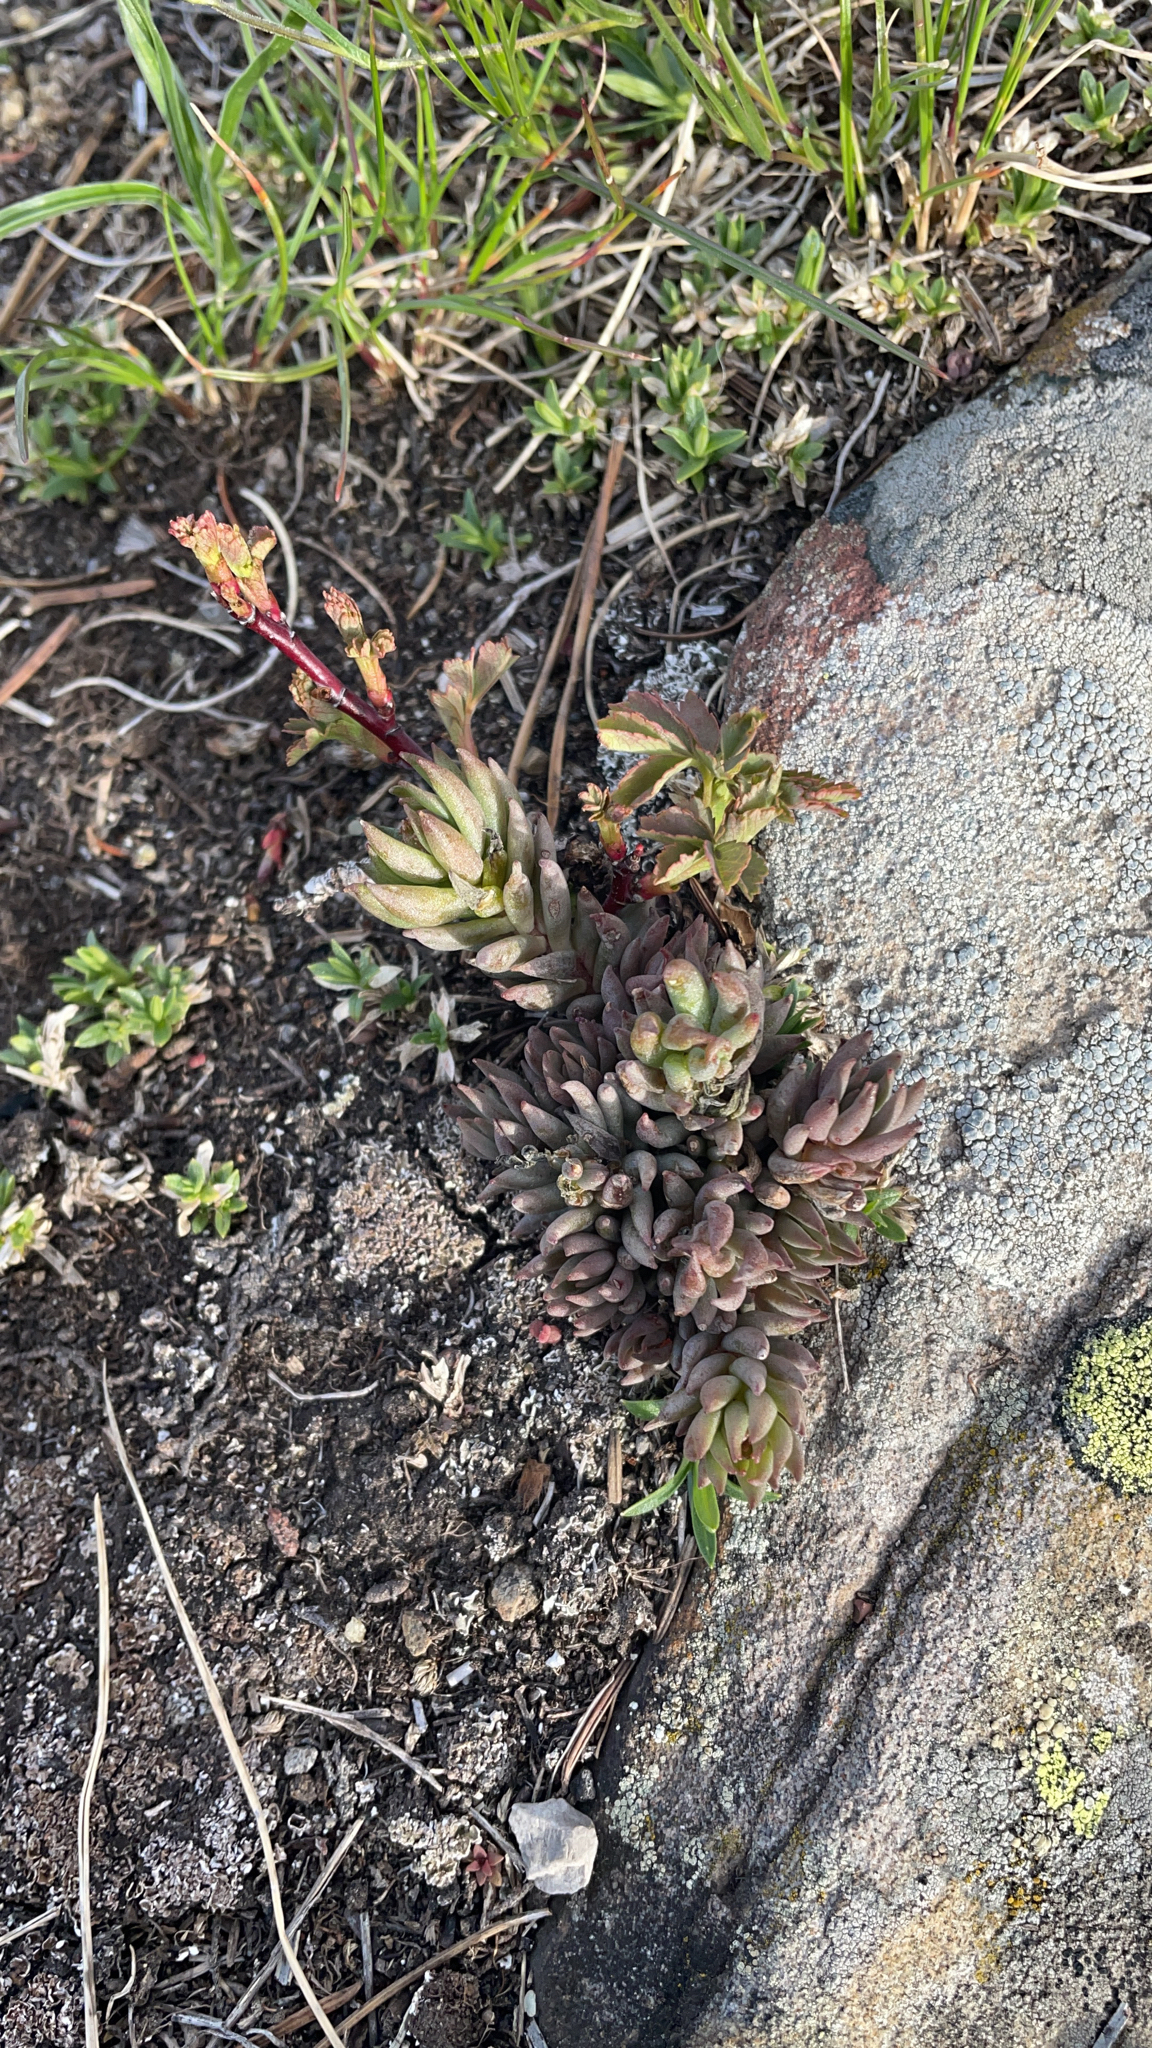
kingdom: Plantae
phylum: Tracheophyta
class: Magnoliopsida
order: Saxifragales
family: Crassulaceae
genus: Sedum
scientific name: Sedum lanceolatum
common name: Common stonecrop
